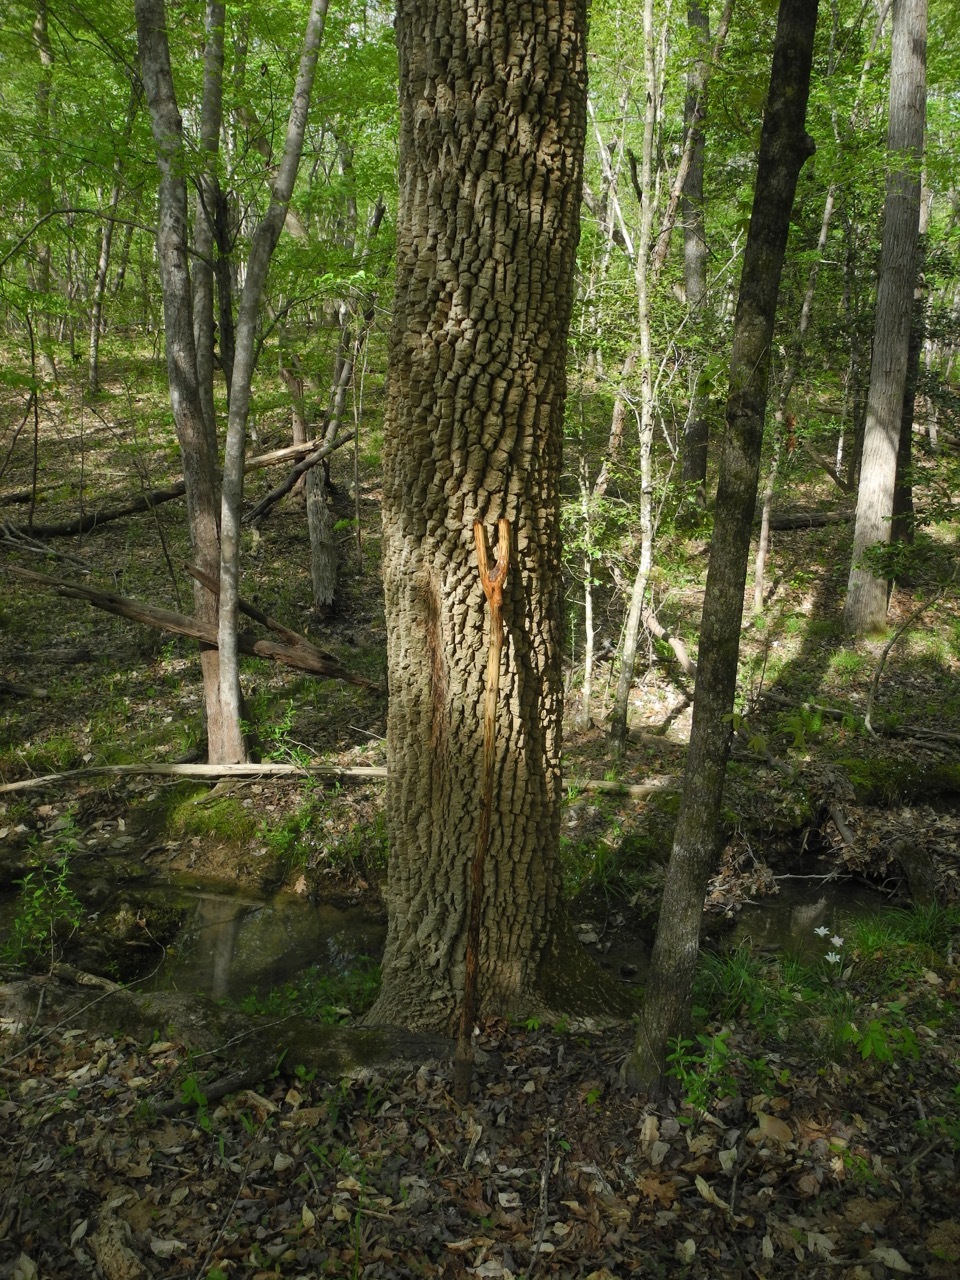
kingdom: Plantae
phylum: Tracheophyta
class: Magnoliopsida
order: Lamiales
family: Oleaceae
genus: Fraxinus
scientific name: Fraxinus pennsylvanica
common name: Green ash
